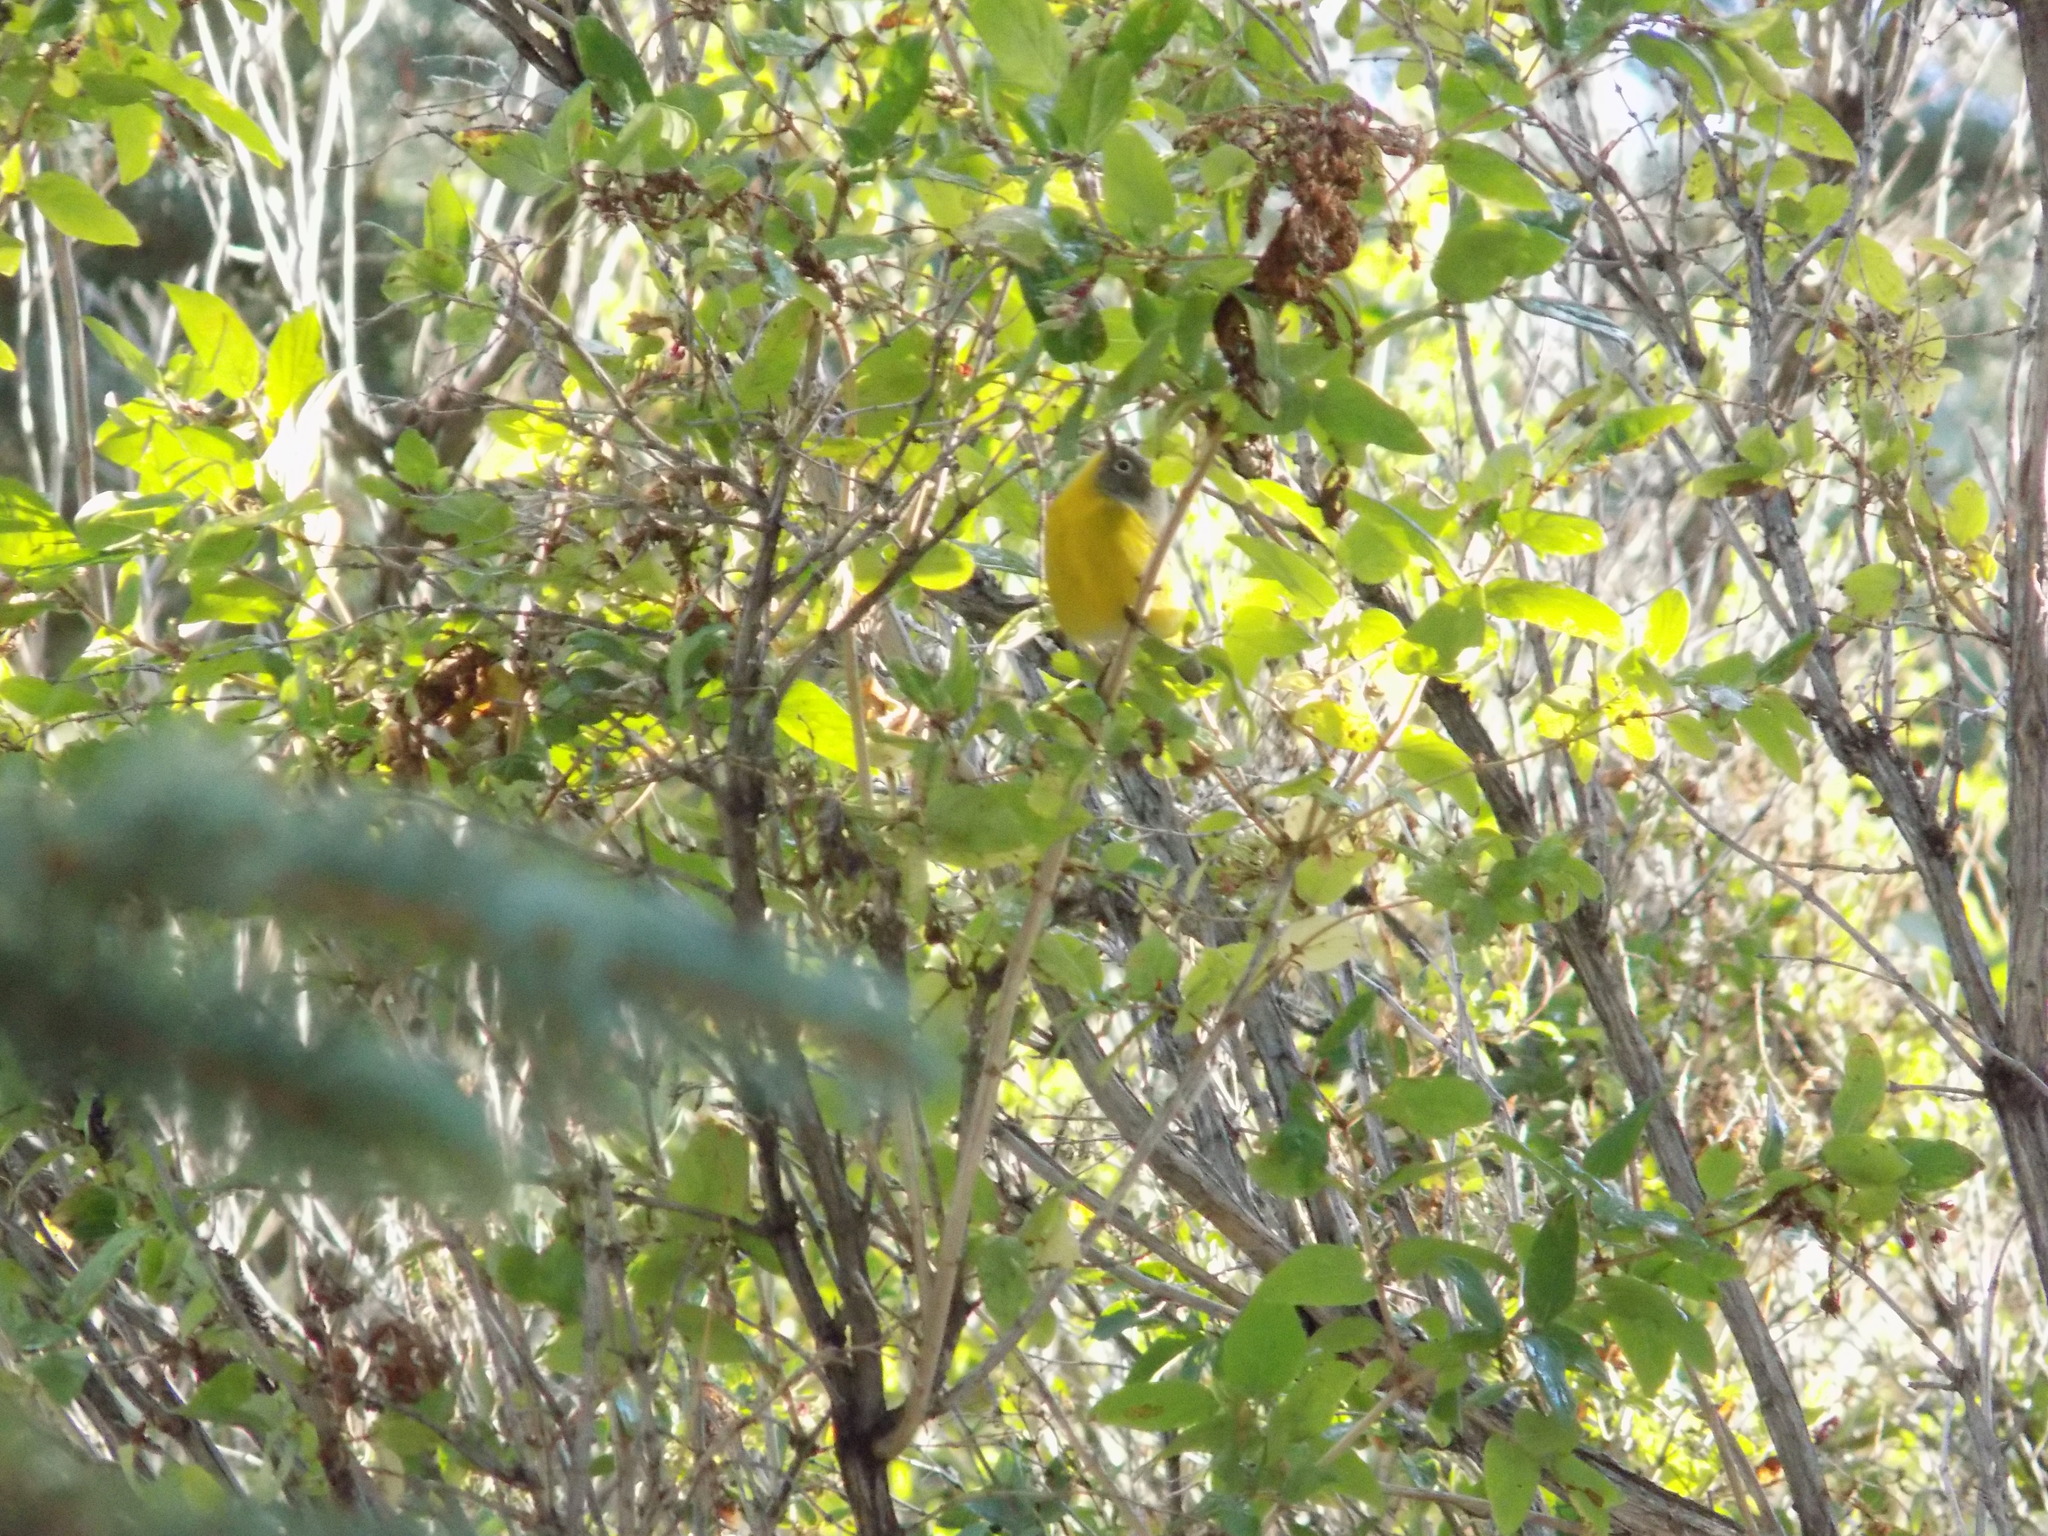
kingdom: Animalia
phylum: Chordata
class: Aves
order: Passeriformes
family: Parulidae
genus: Leiothlypis
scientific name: Leiothlypis ruficapilla
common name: Nashville warbler
